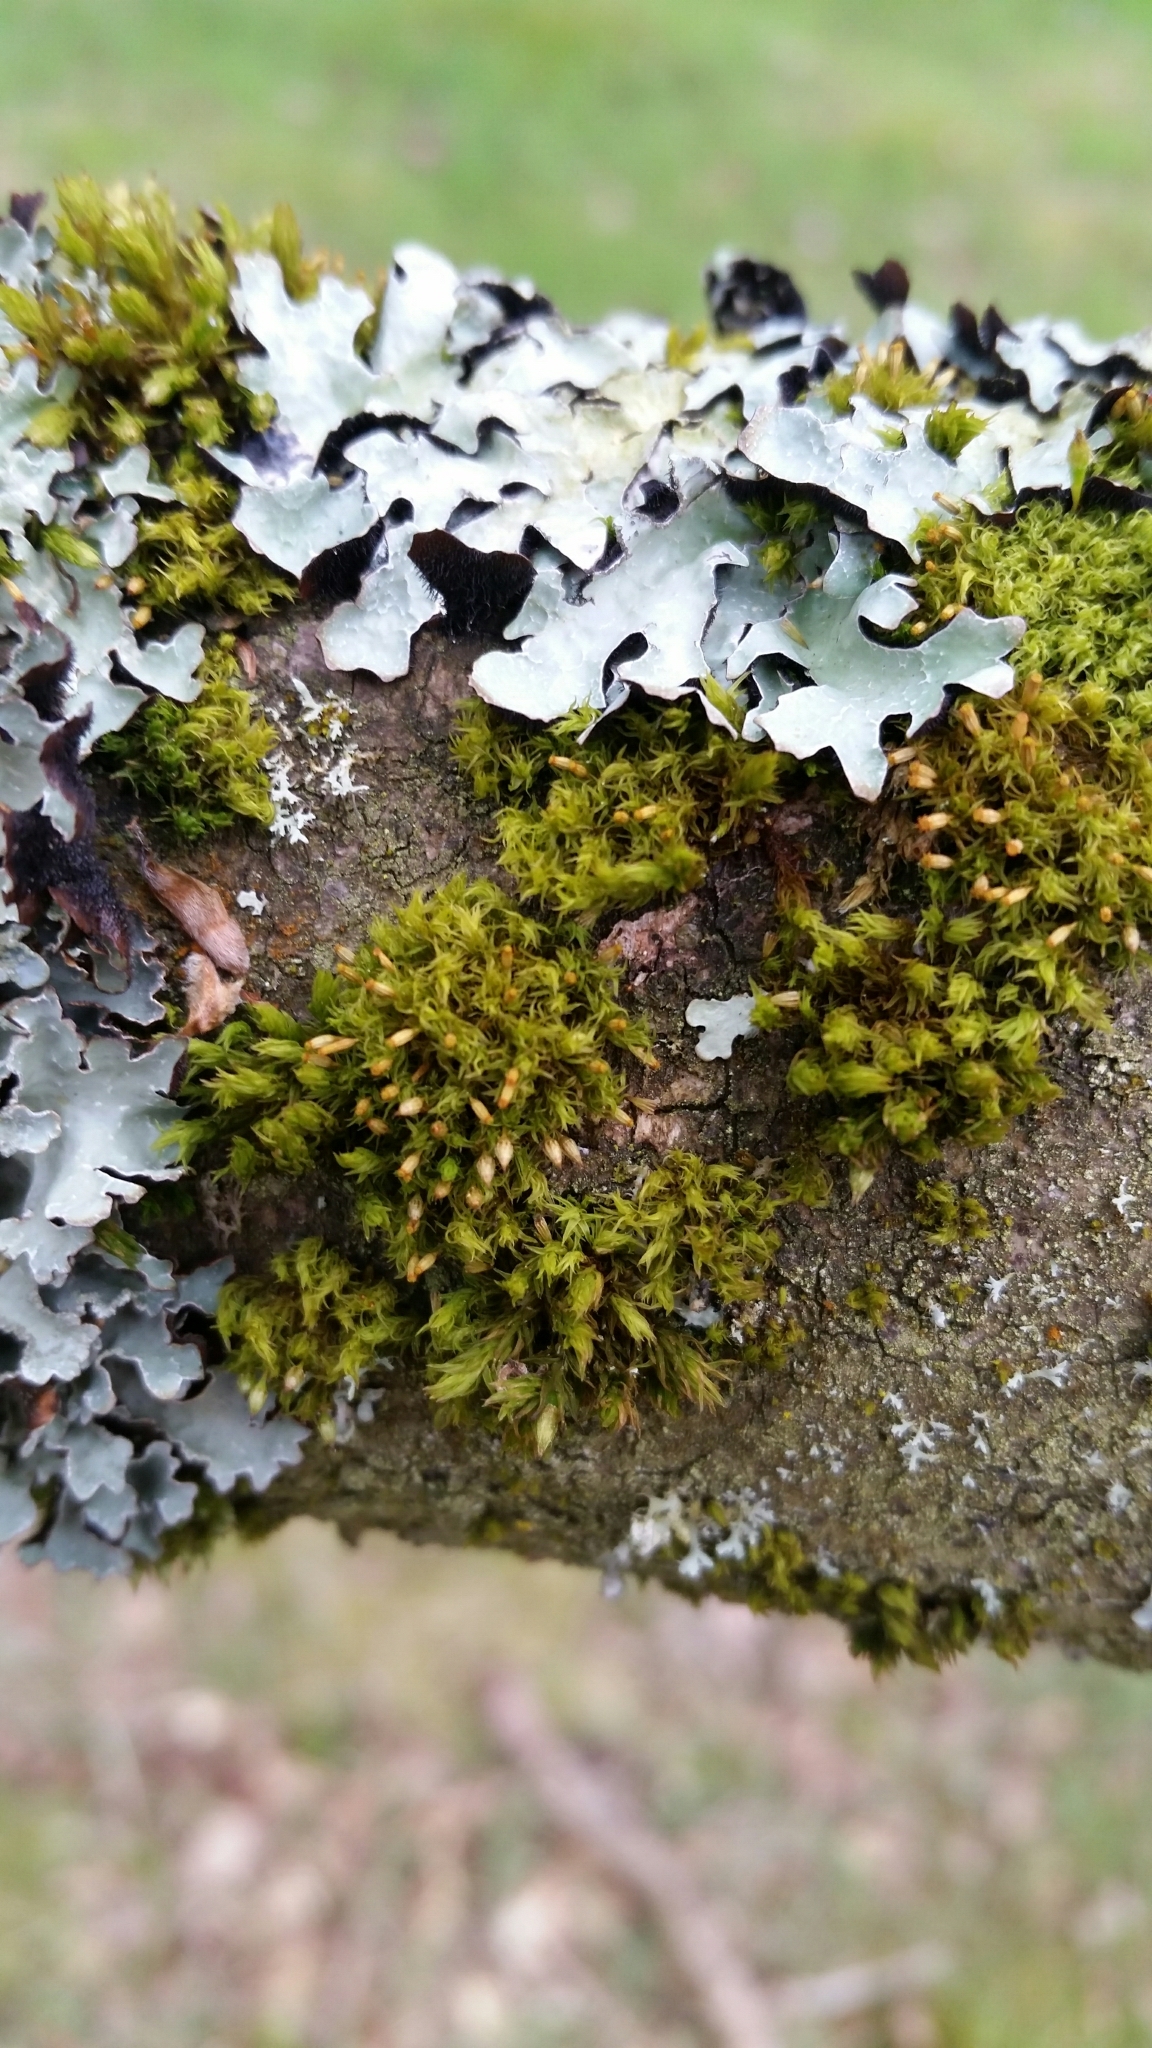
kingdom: Plantae
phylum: Bryophyta
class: Bryopsida
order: Orthotrichales
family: Orthotrichaceae
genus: Orthotrichum
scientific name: Orthotrichum pulchellum
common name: Elegant bristle-moss
